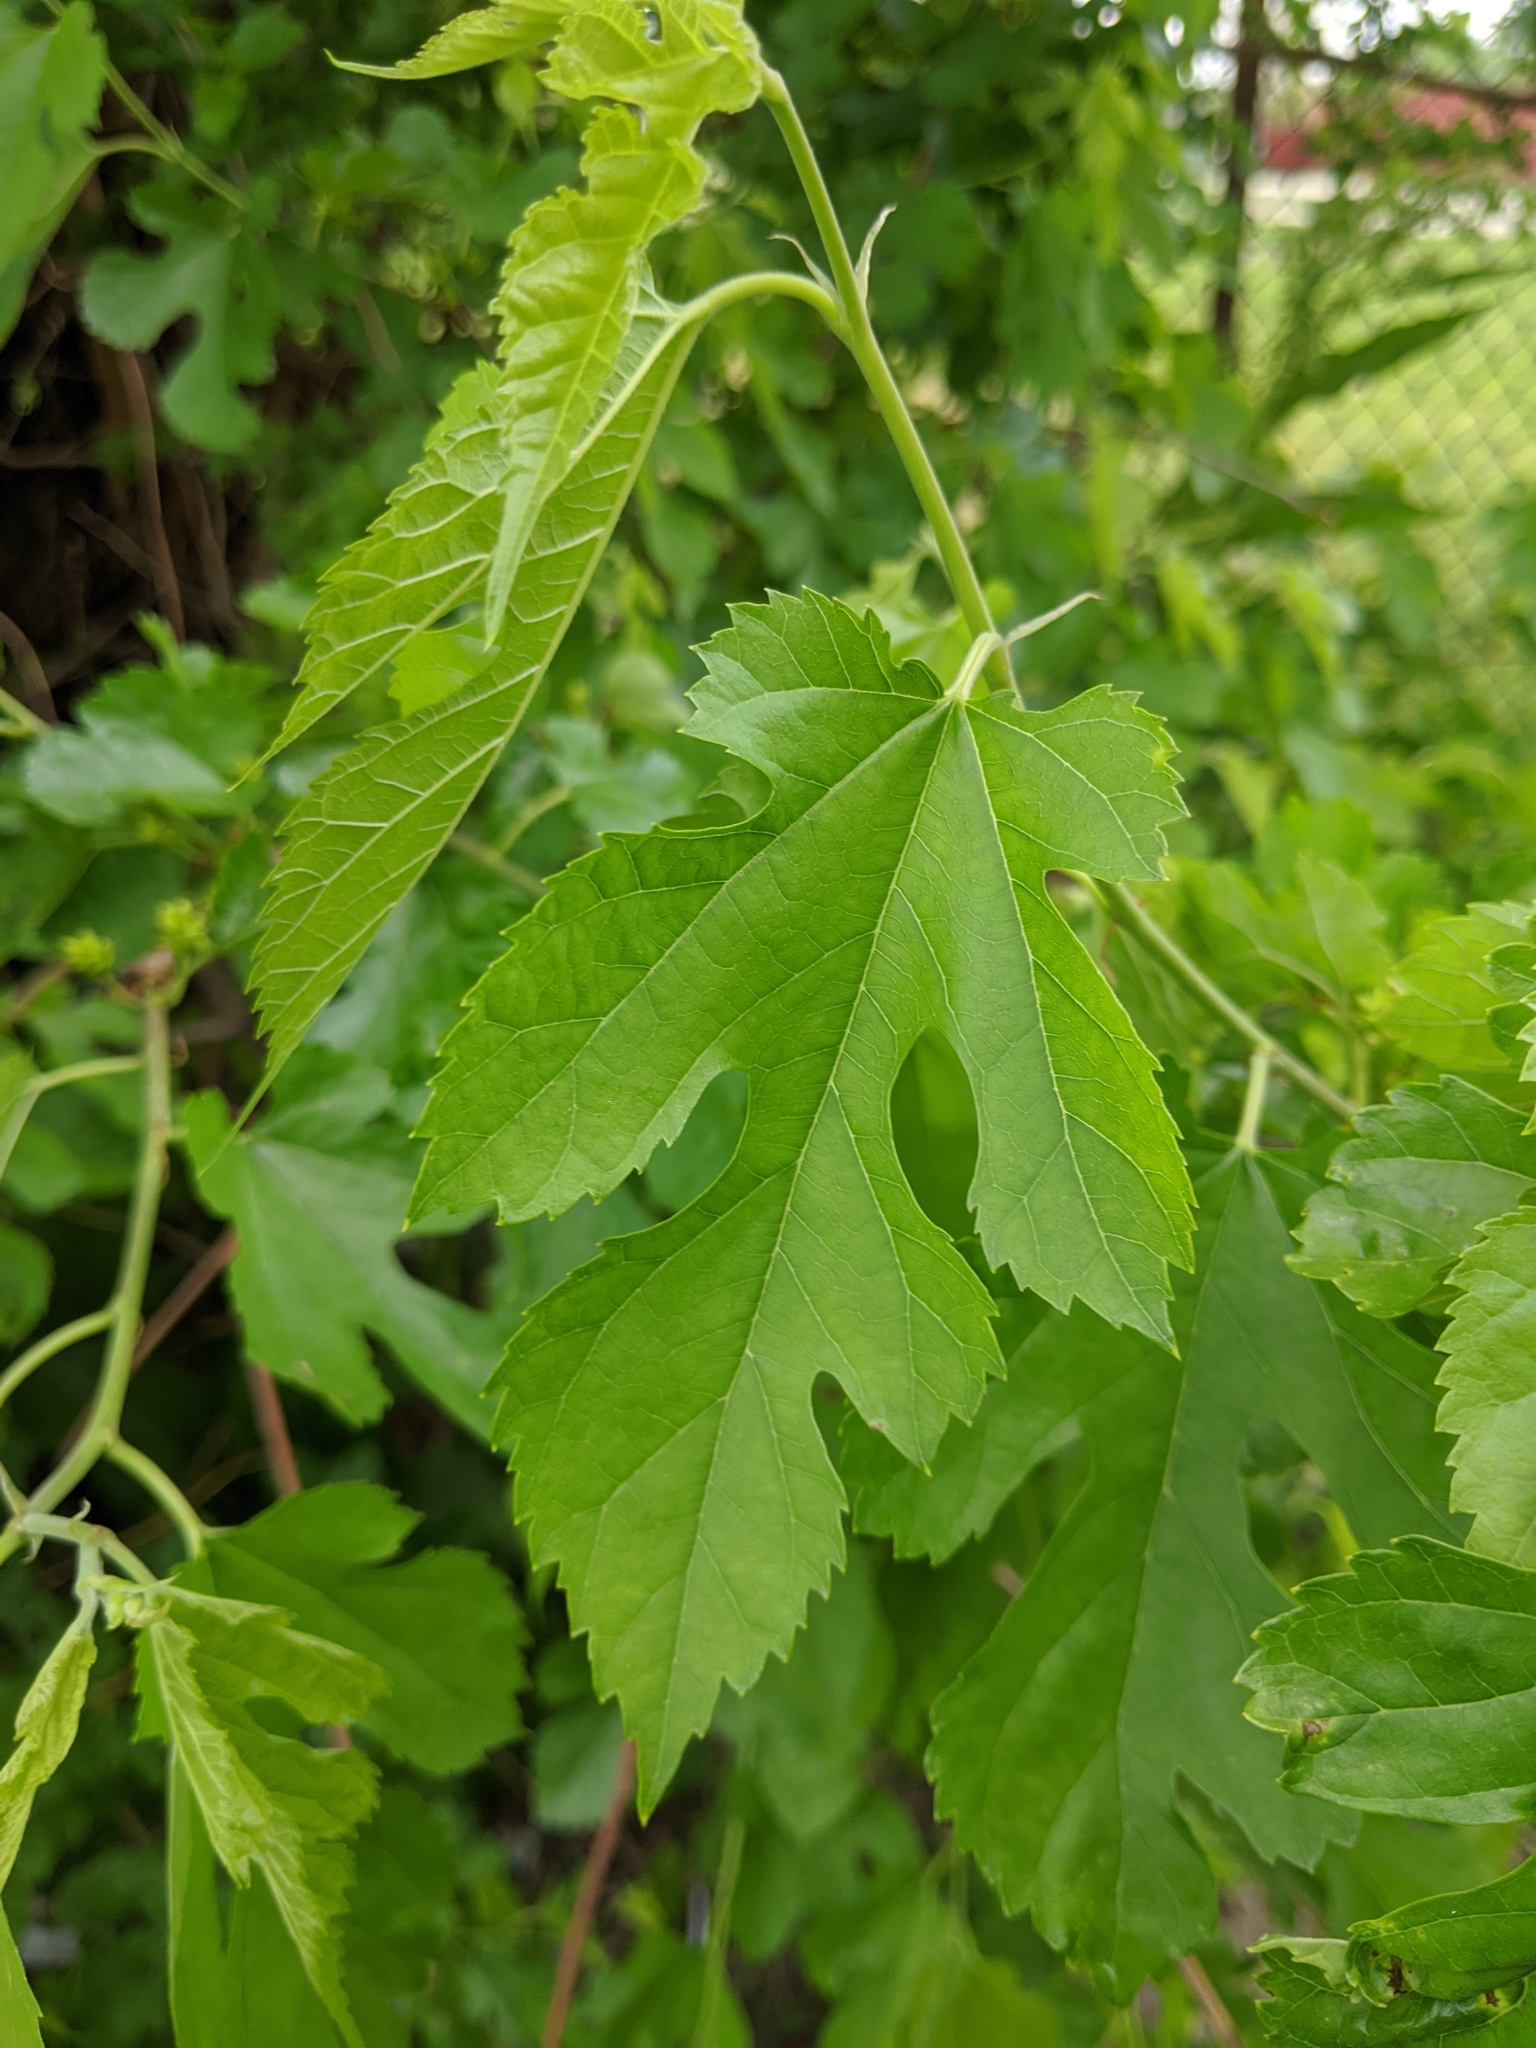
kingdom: Plantae
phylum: Tracheophyta
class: Magnoliopsida
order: Rosales
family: Moraceae
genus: Morus
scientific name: Morus alba
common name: White mulberry
